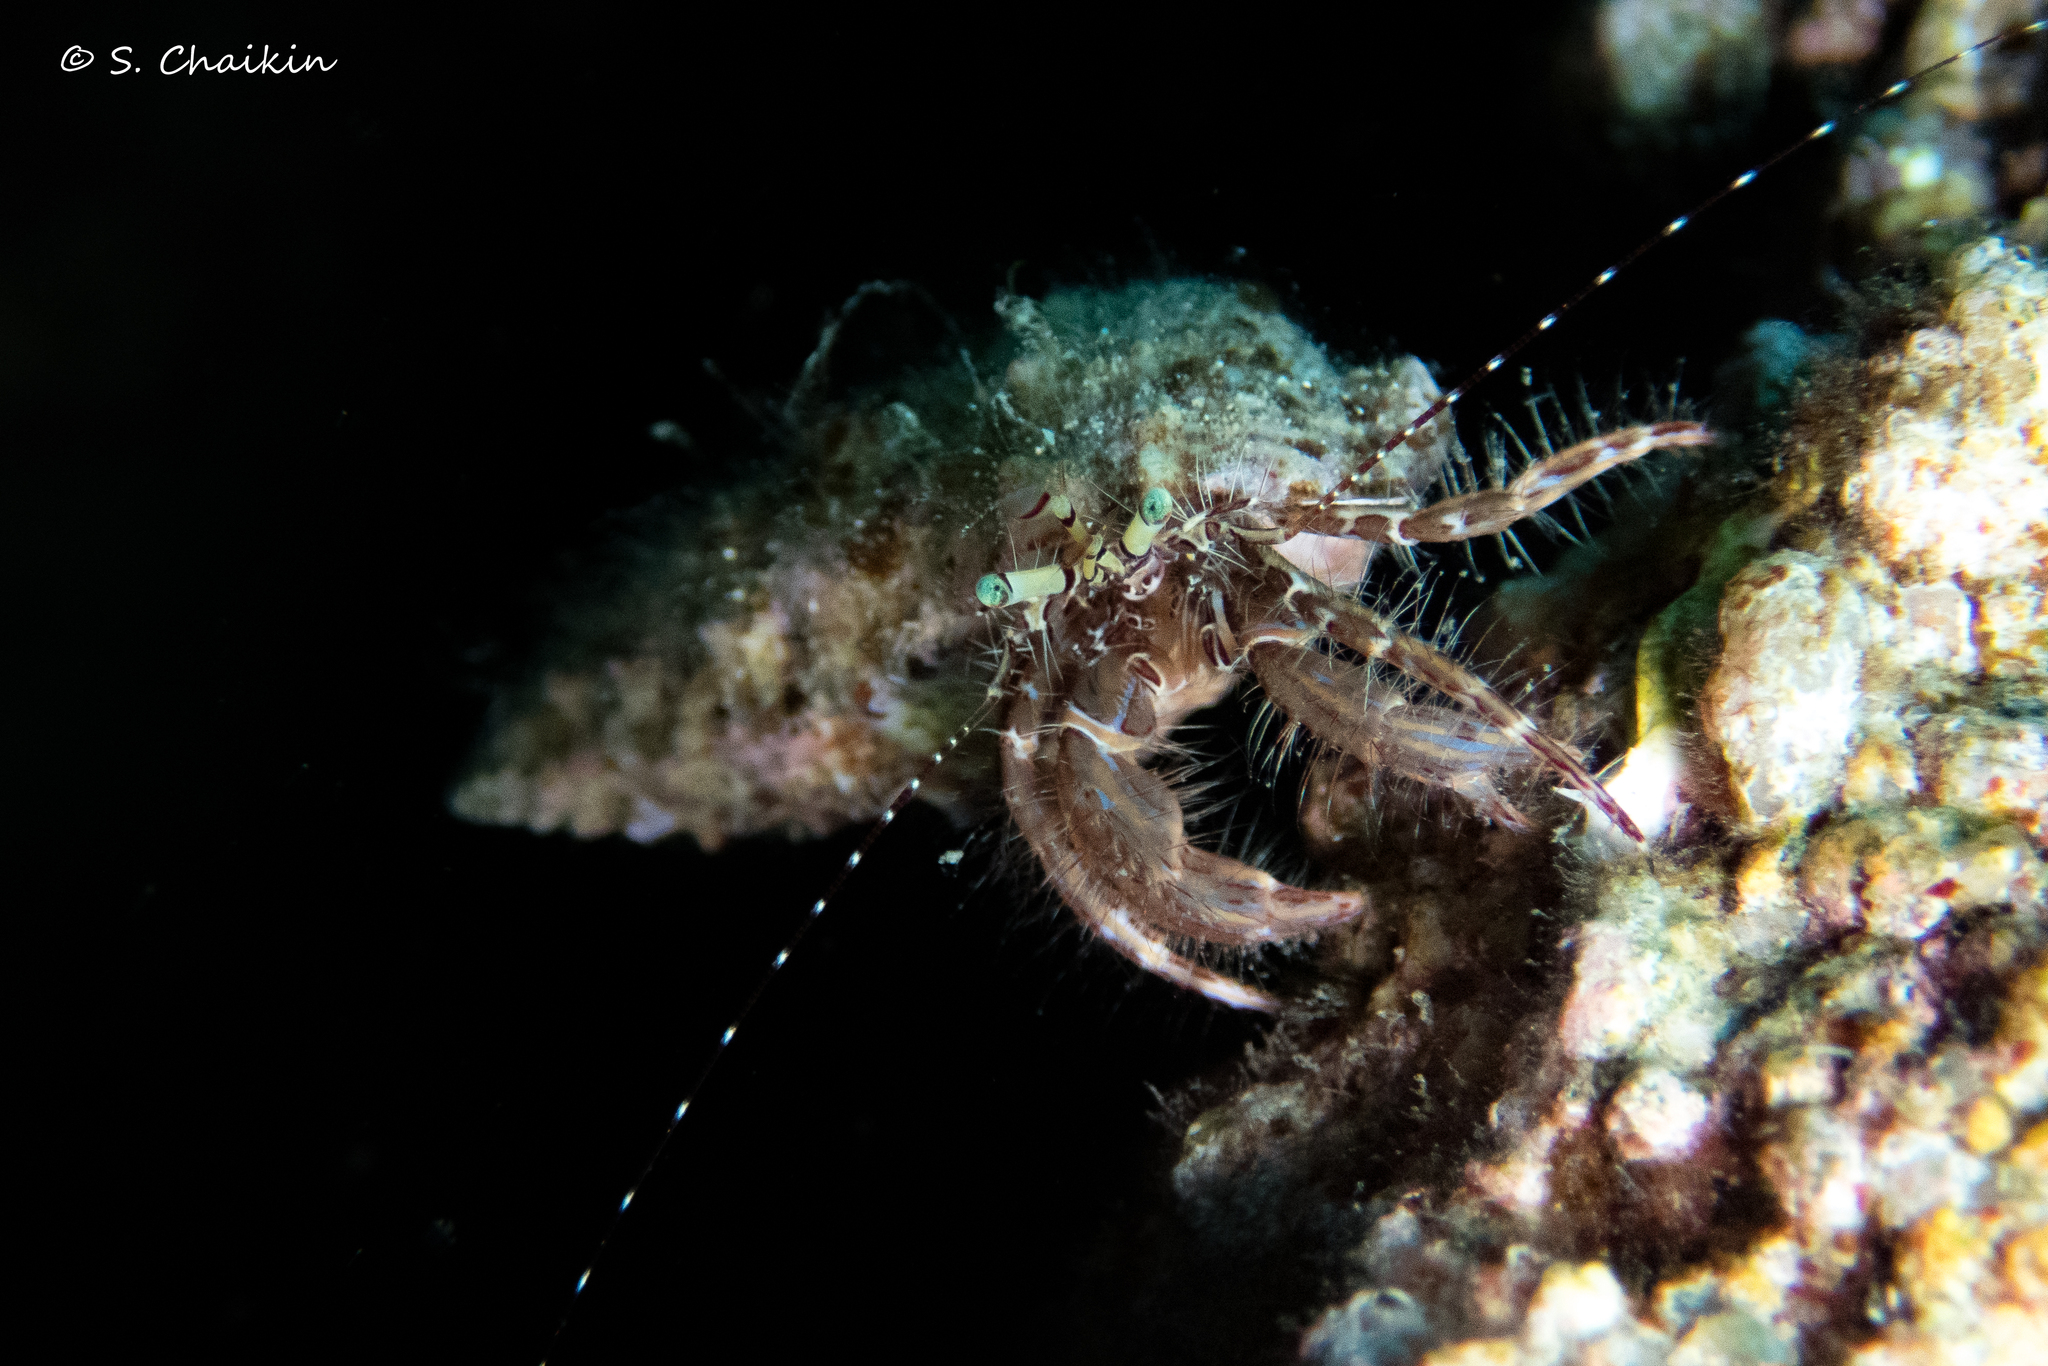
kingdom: Animalia
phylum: Arthropoda
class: Malacostraca
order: Decapoda
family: Paguridae
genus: Pagurus
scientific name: Pagurus anachoretus
